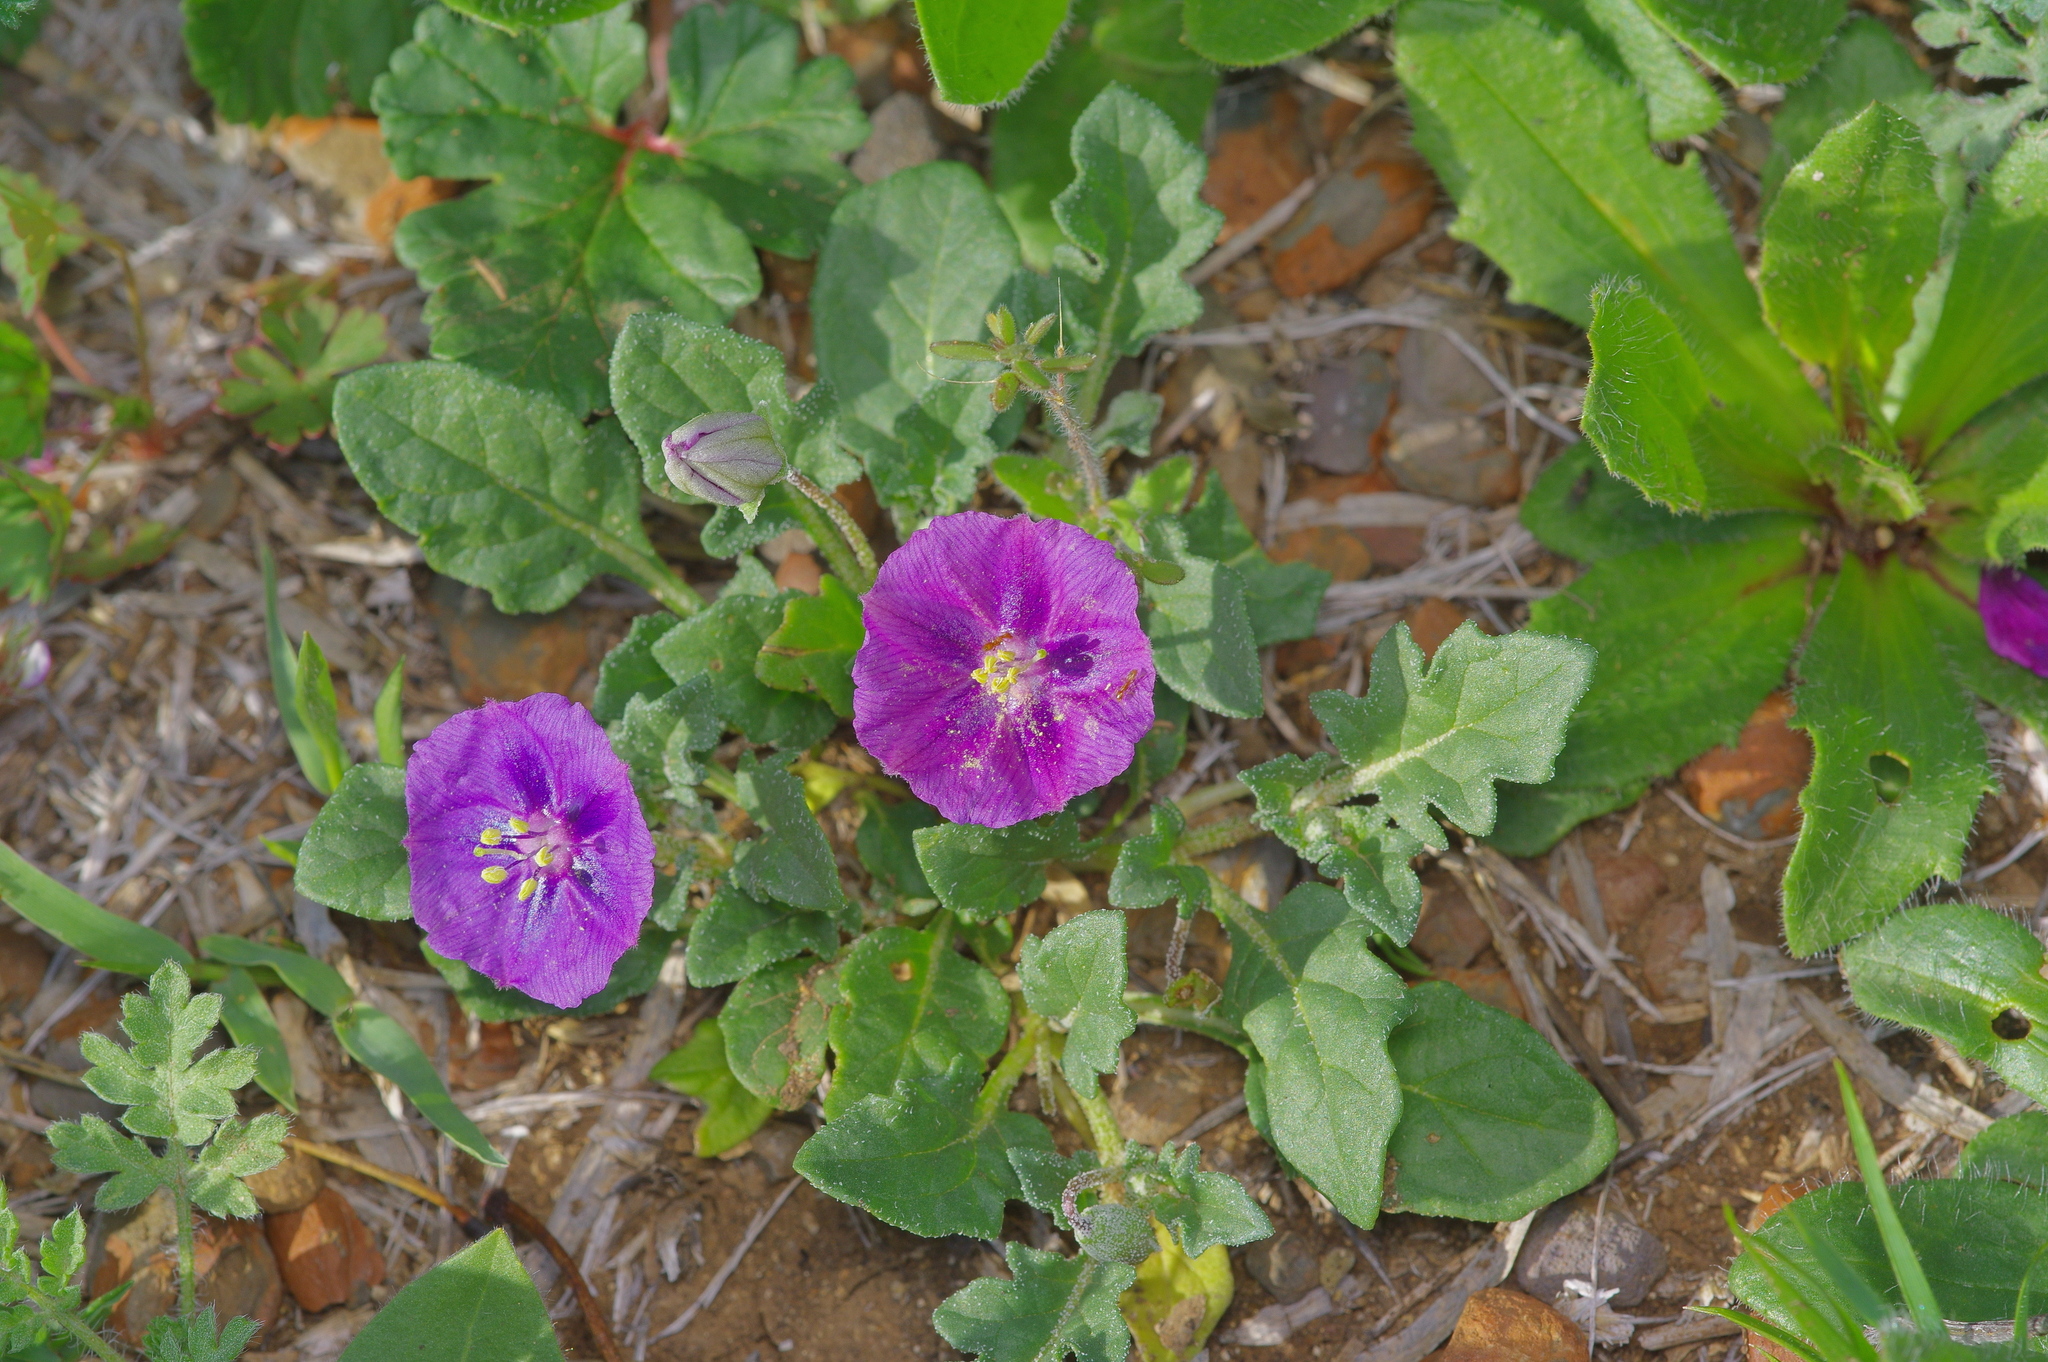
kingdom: Plantae
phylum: Tracheophyta
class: Magnoliopsida
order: Solanales
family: Solanaceae
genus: Quincula
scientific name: Quincula lobata
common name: Purple-ground-cherry
